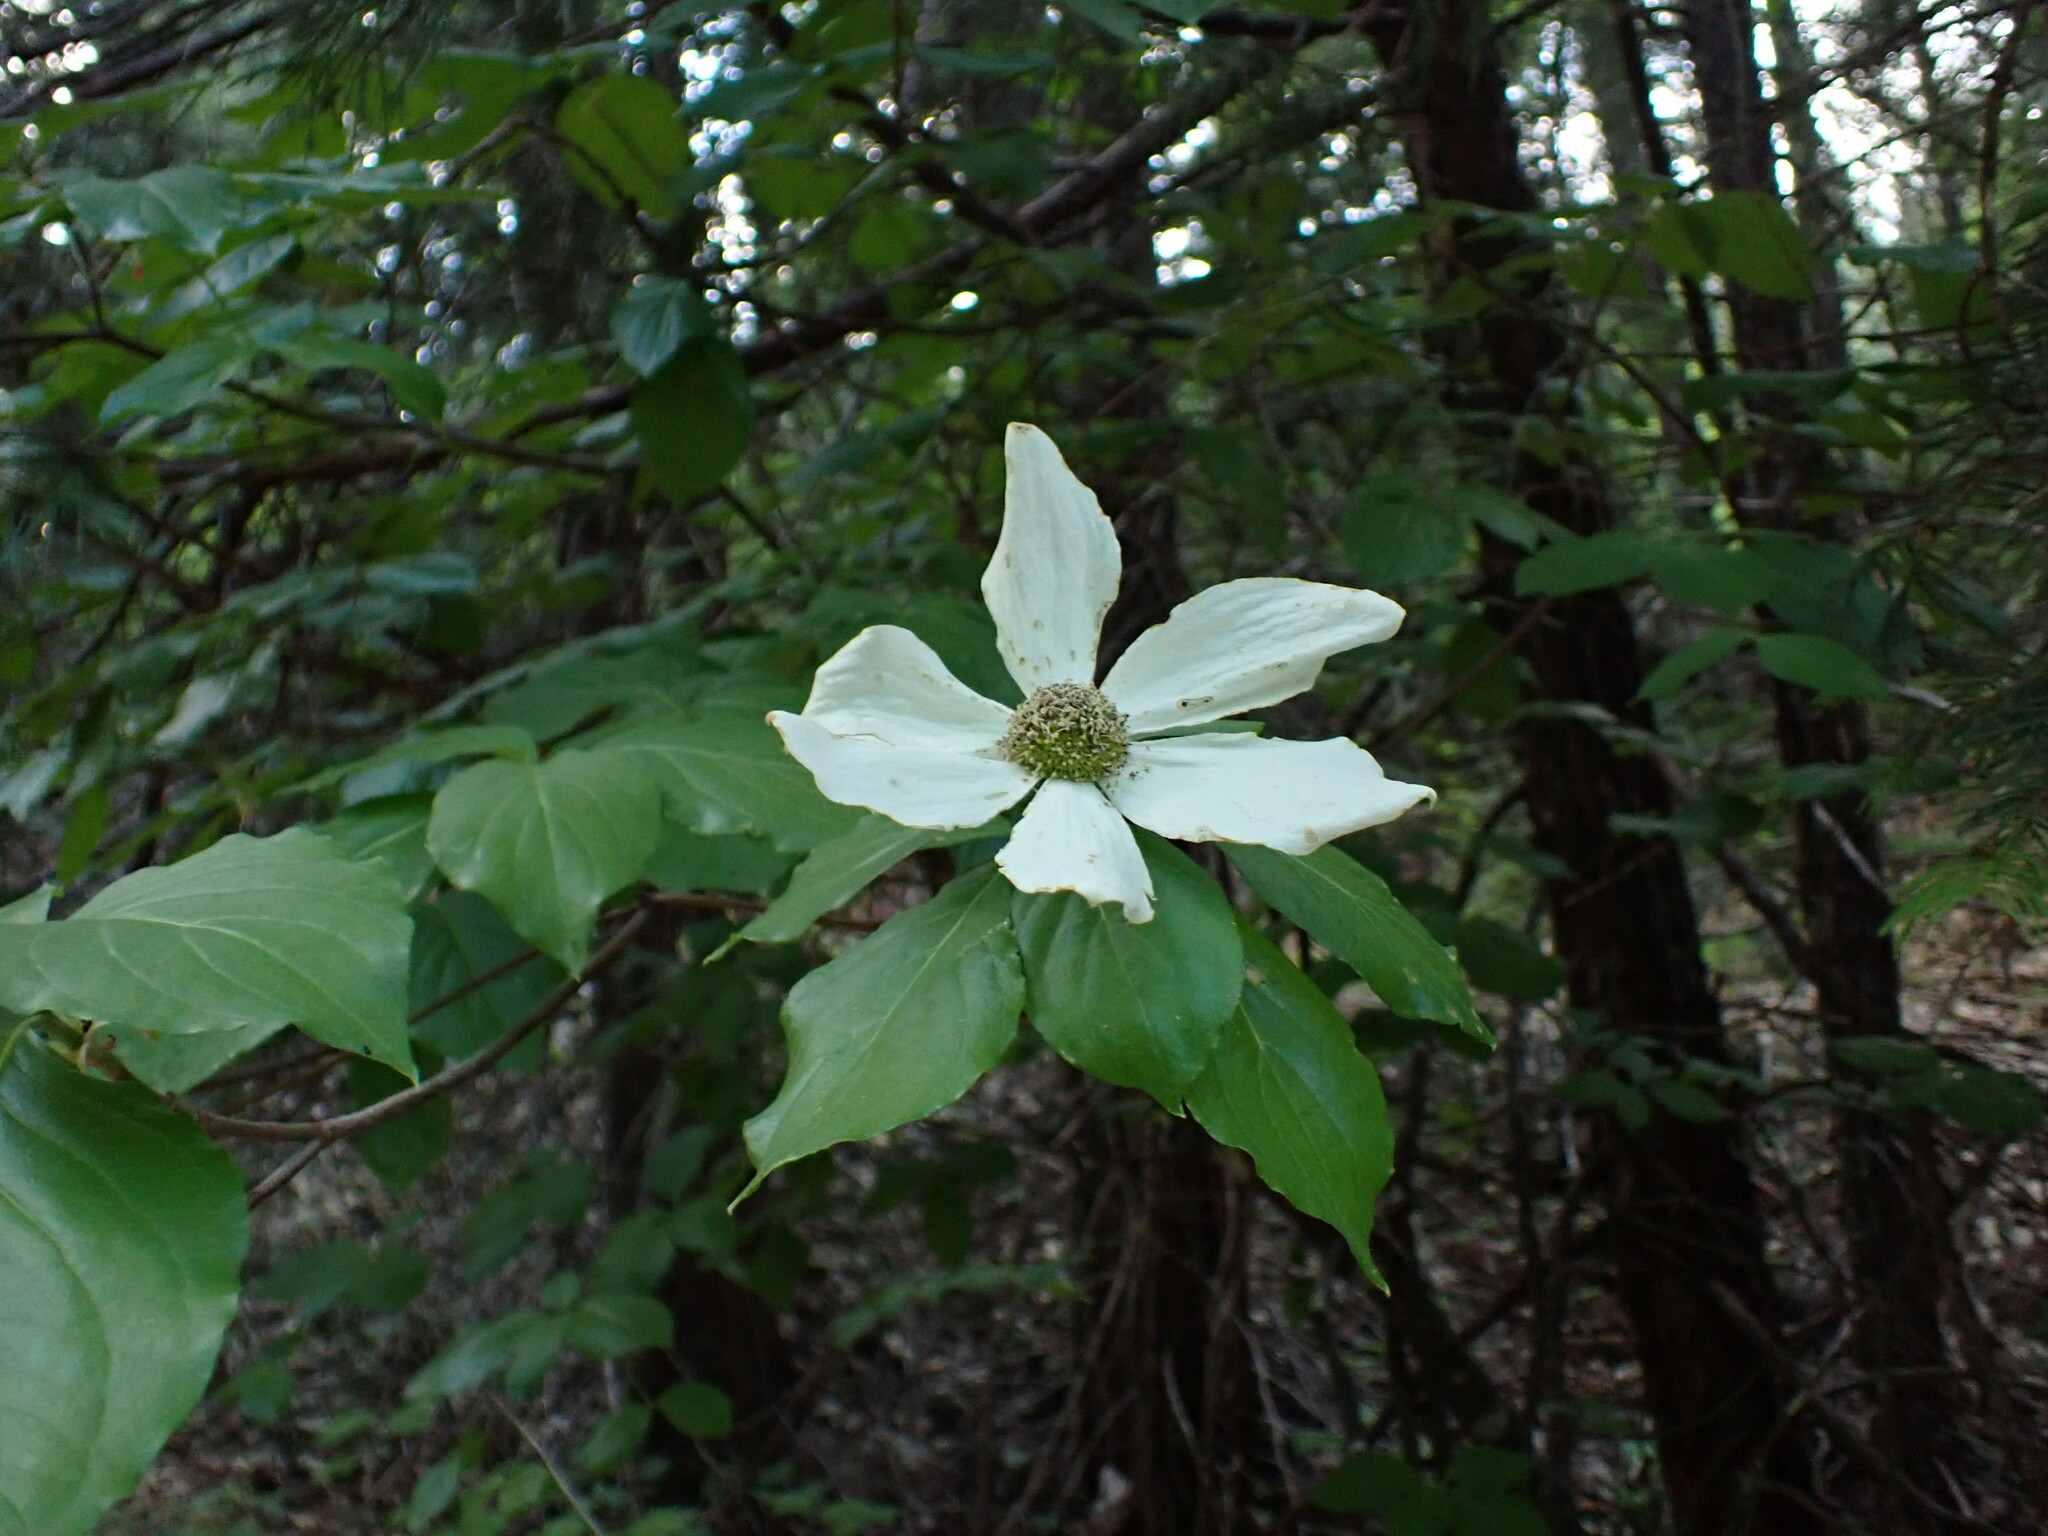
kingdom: Plantae
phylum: Tracheophyta
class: Magnoliopsida
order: Cornales
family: Cornaceae
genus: Cornus
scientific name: Cornus nuttallii
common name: Pacific dogwood
